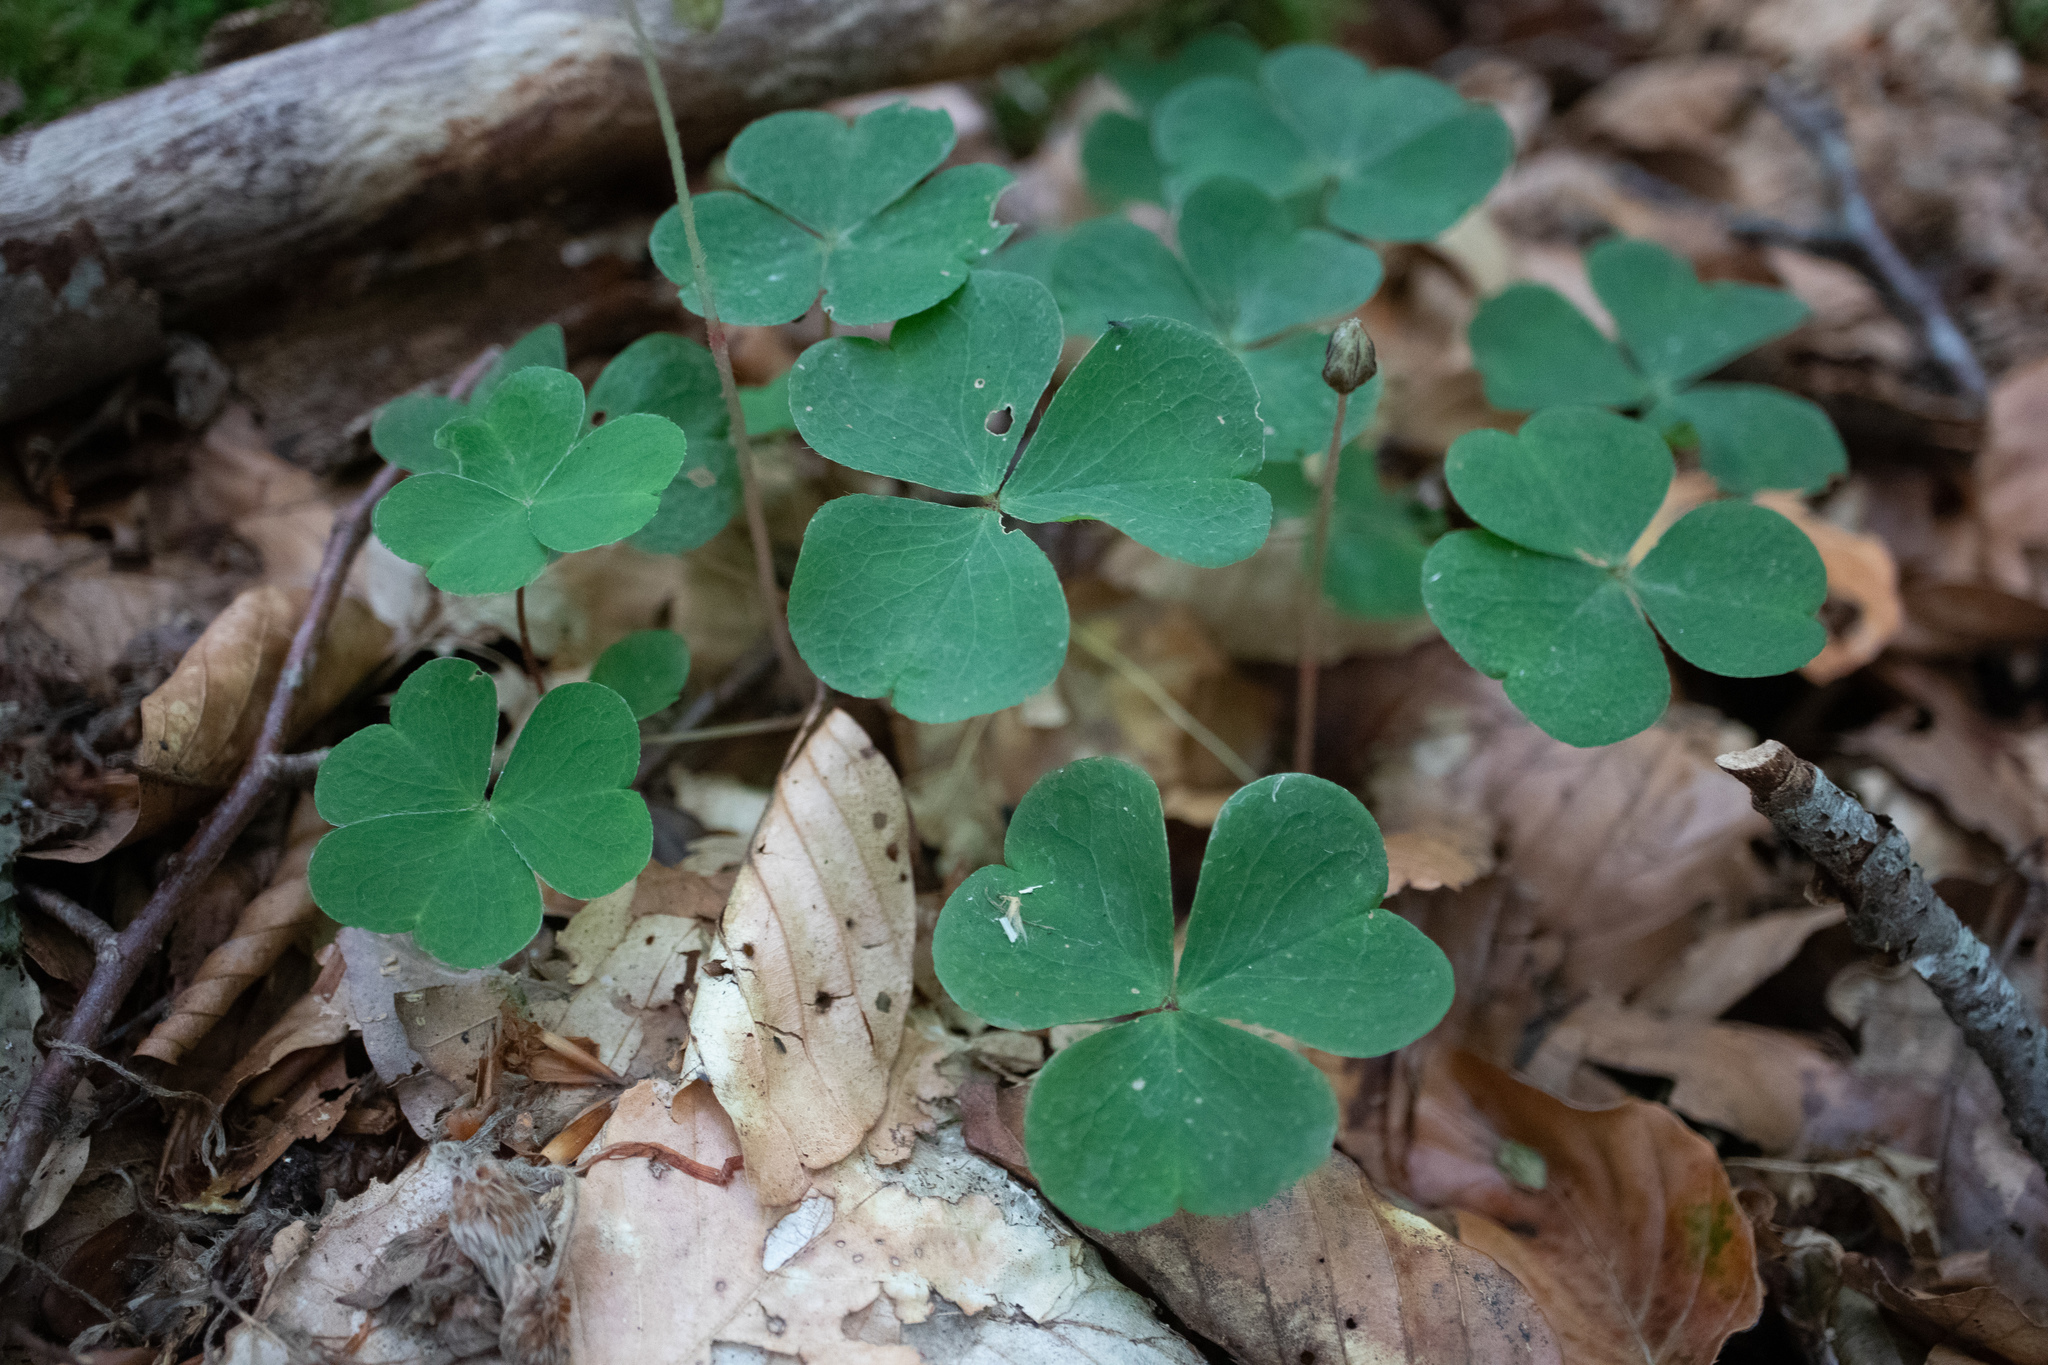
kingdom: Plantae
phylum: Tracheophyta
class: Magnoliopsida
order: Oxalidales
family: Oxalidaceae
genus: Oxalis
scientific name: Oxalis acetosella
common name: Wood-sorrel
